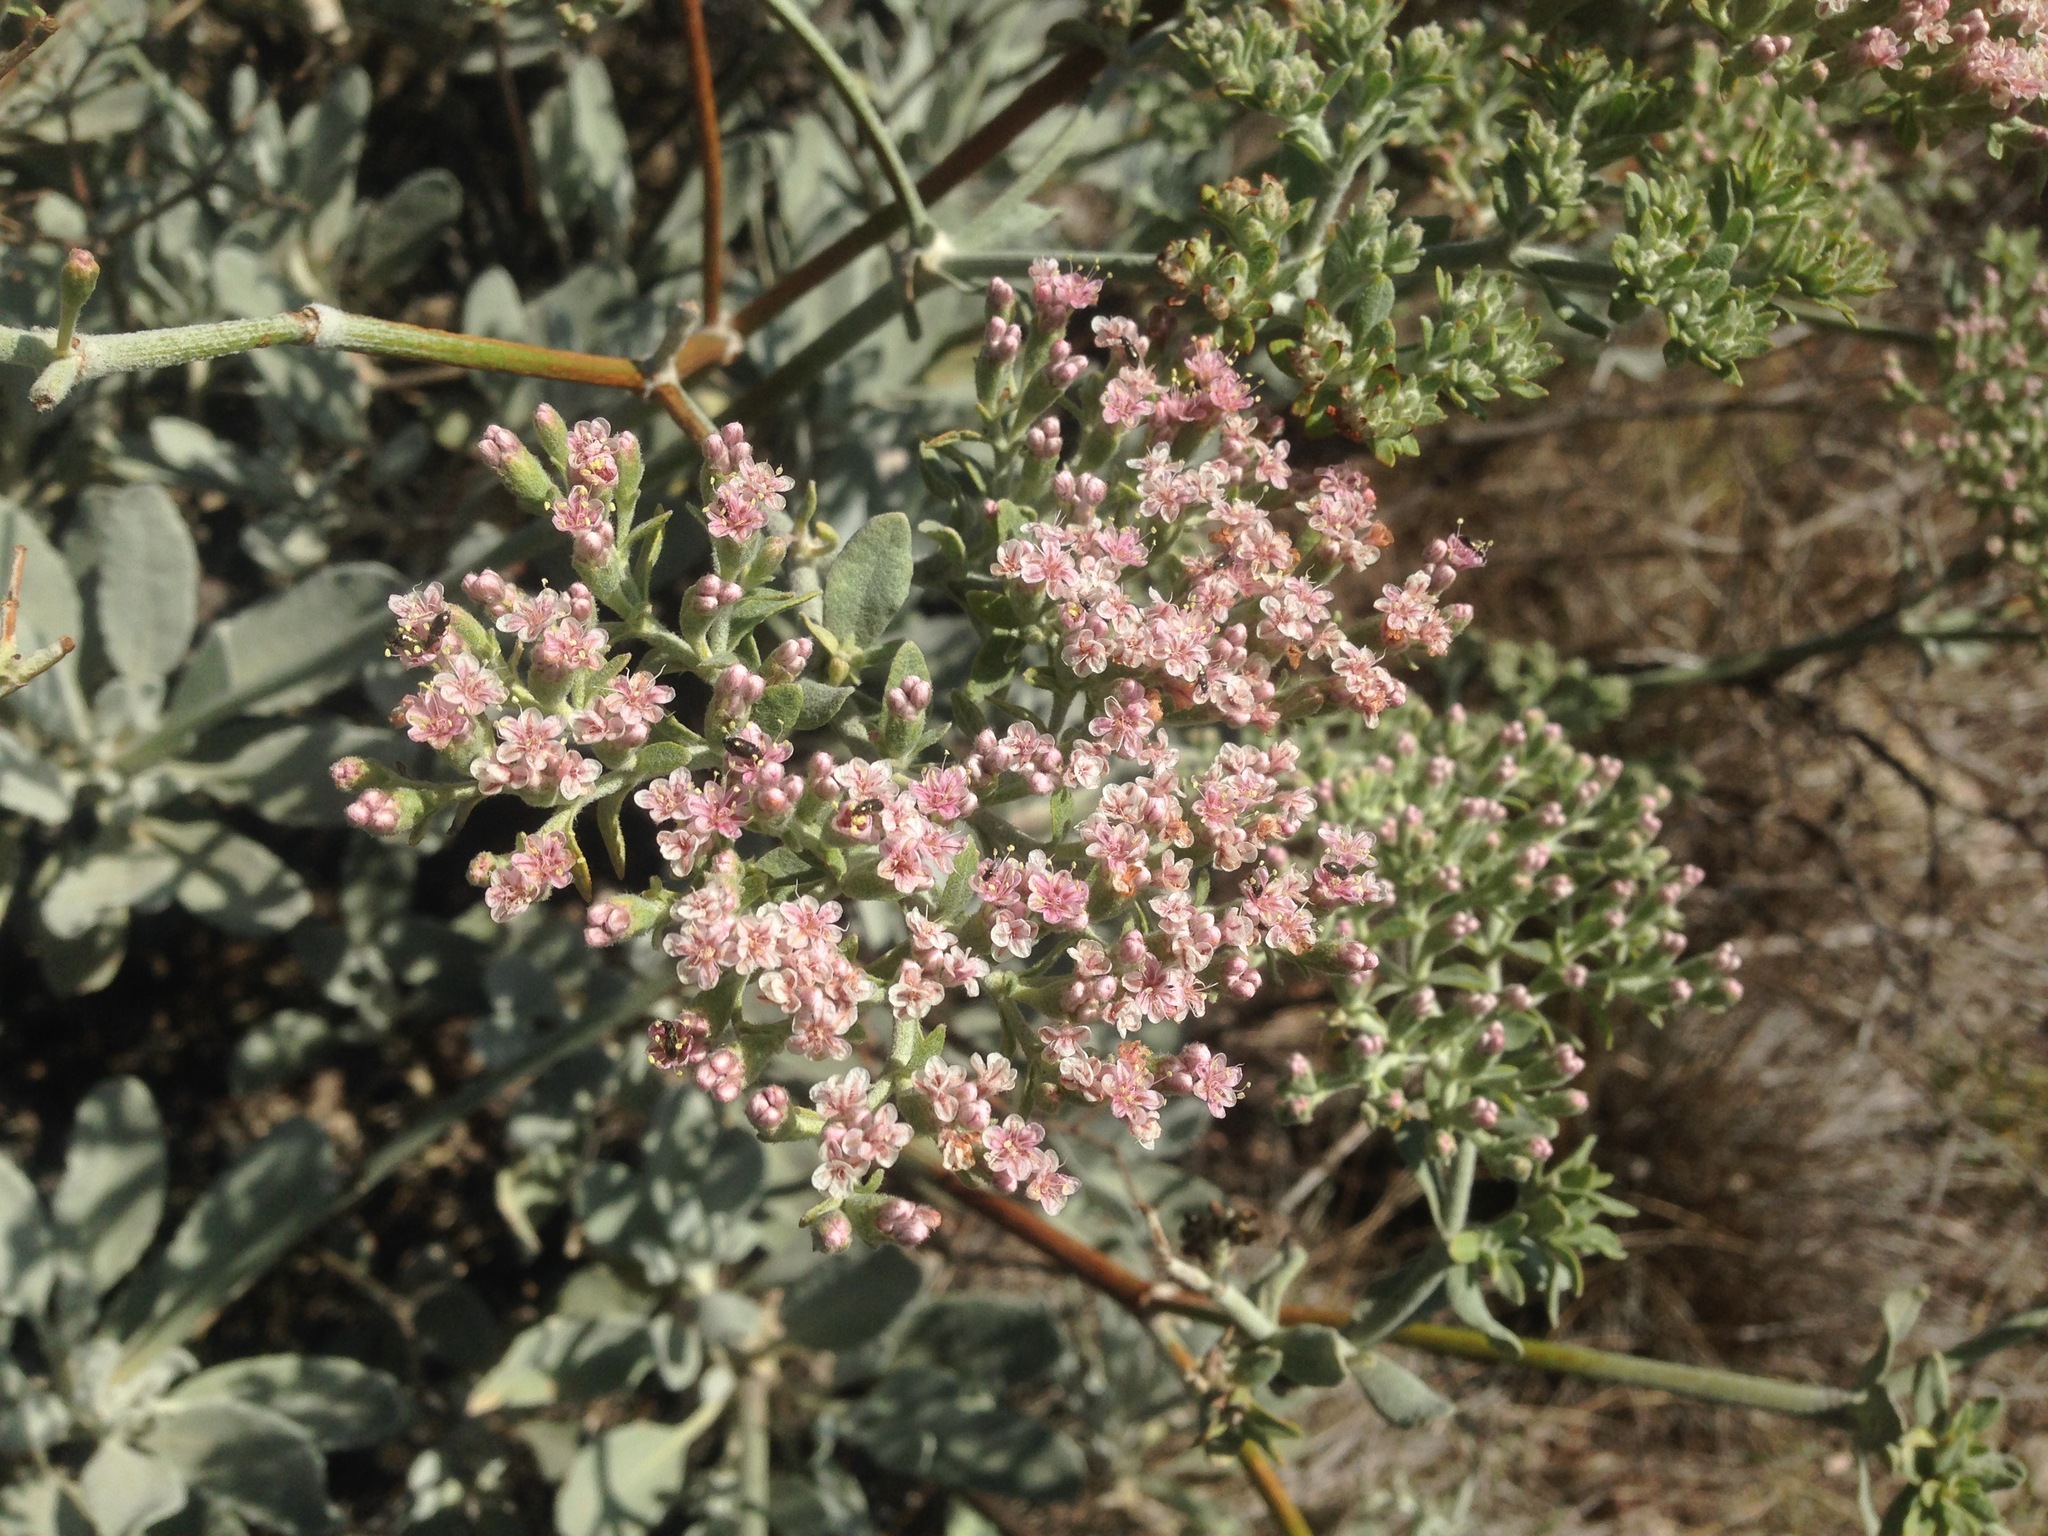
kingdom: Plantae
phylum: Tracheophyta
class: Magnoliopsida
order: Caryophyllales
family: Polygonaceae
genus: Eriogonum
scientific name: Eriogonum giganteum
